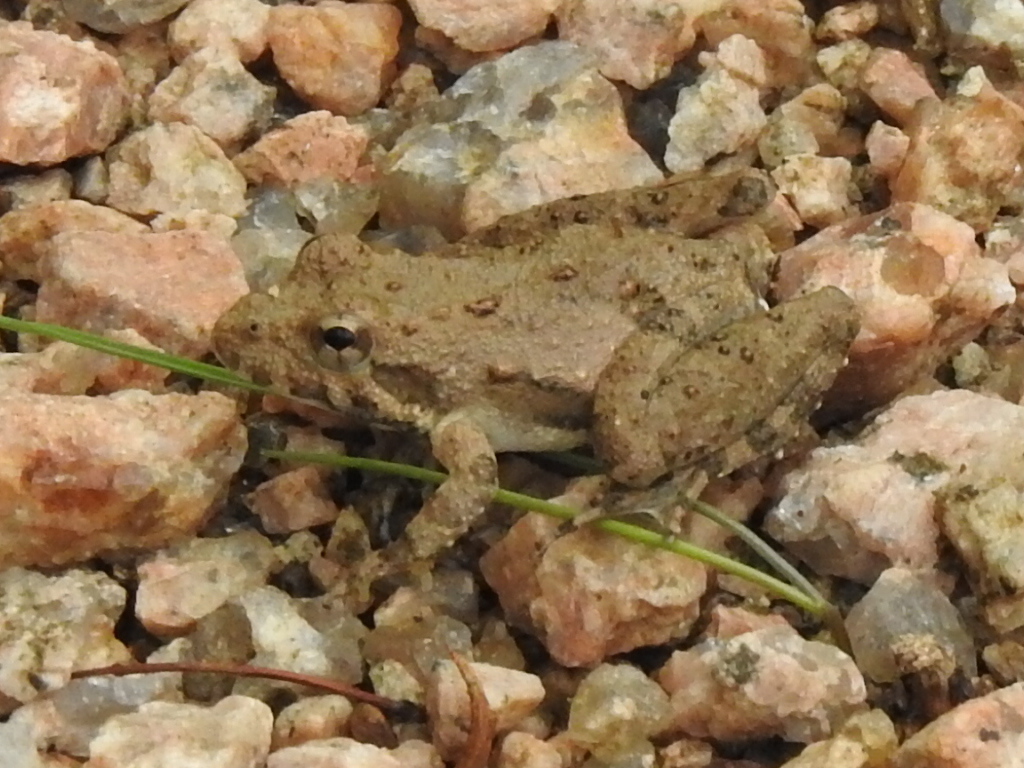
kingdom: Animalia
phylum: Chordata
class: Amphibia
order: Anura
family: Hylidae
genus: Acris
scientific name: Acris blanchardi
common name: Blanchard's cricket frog
